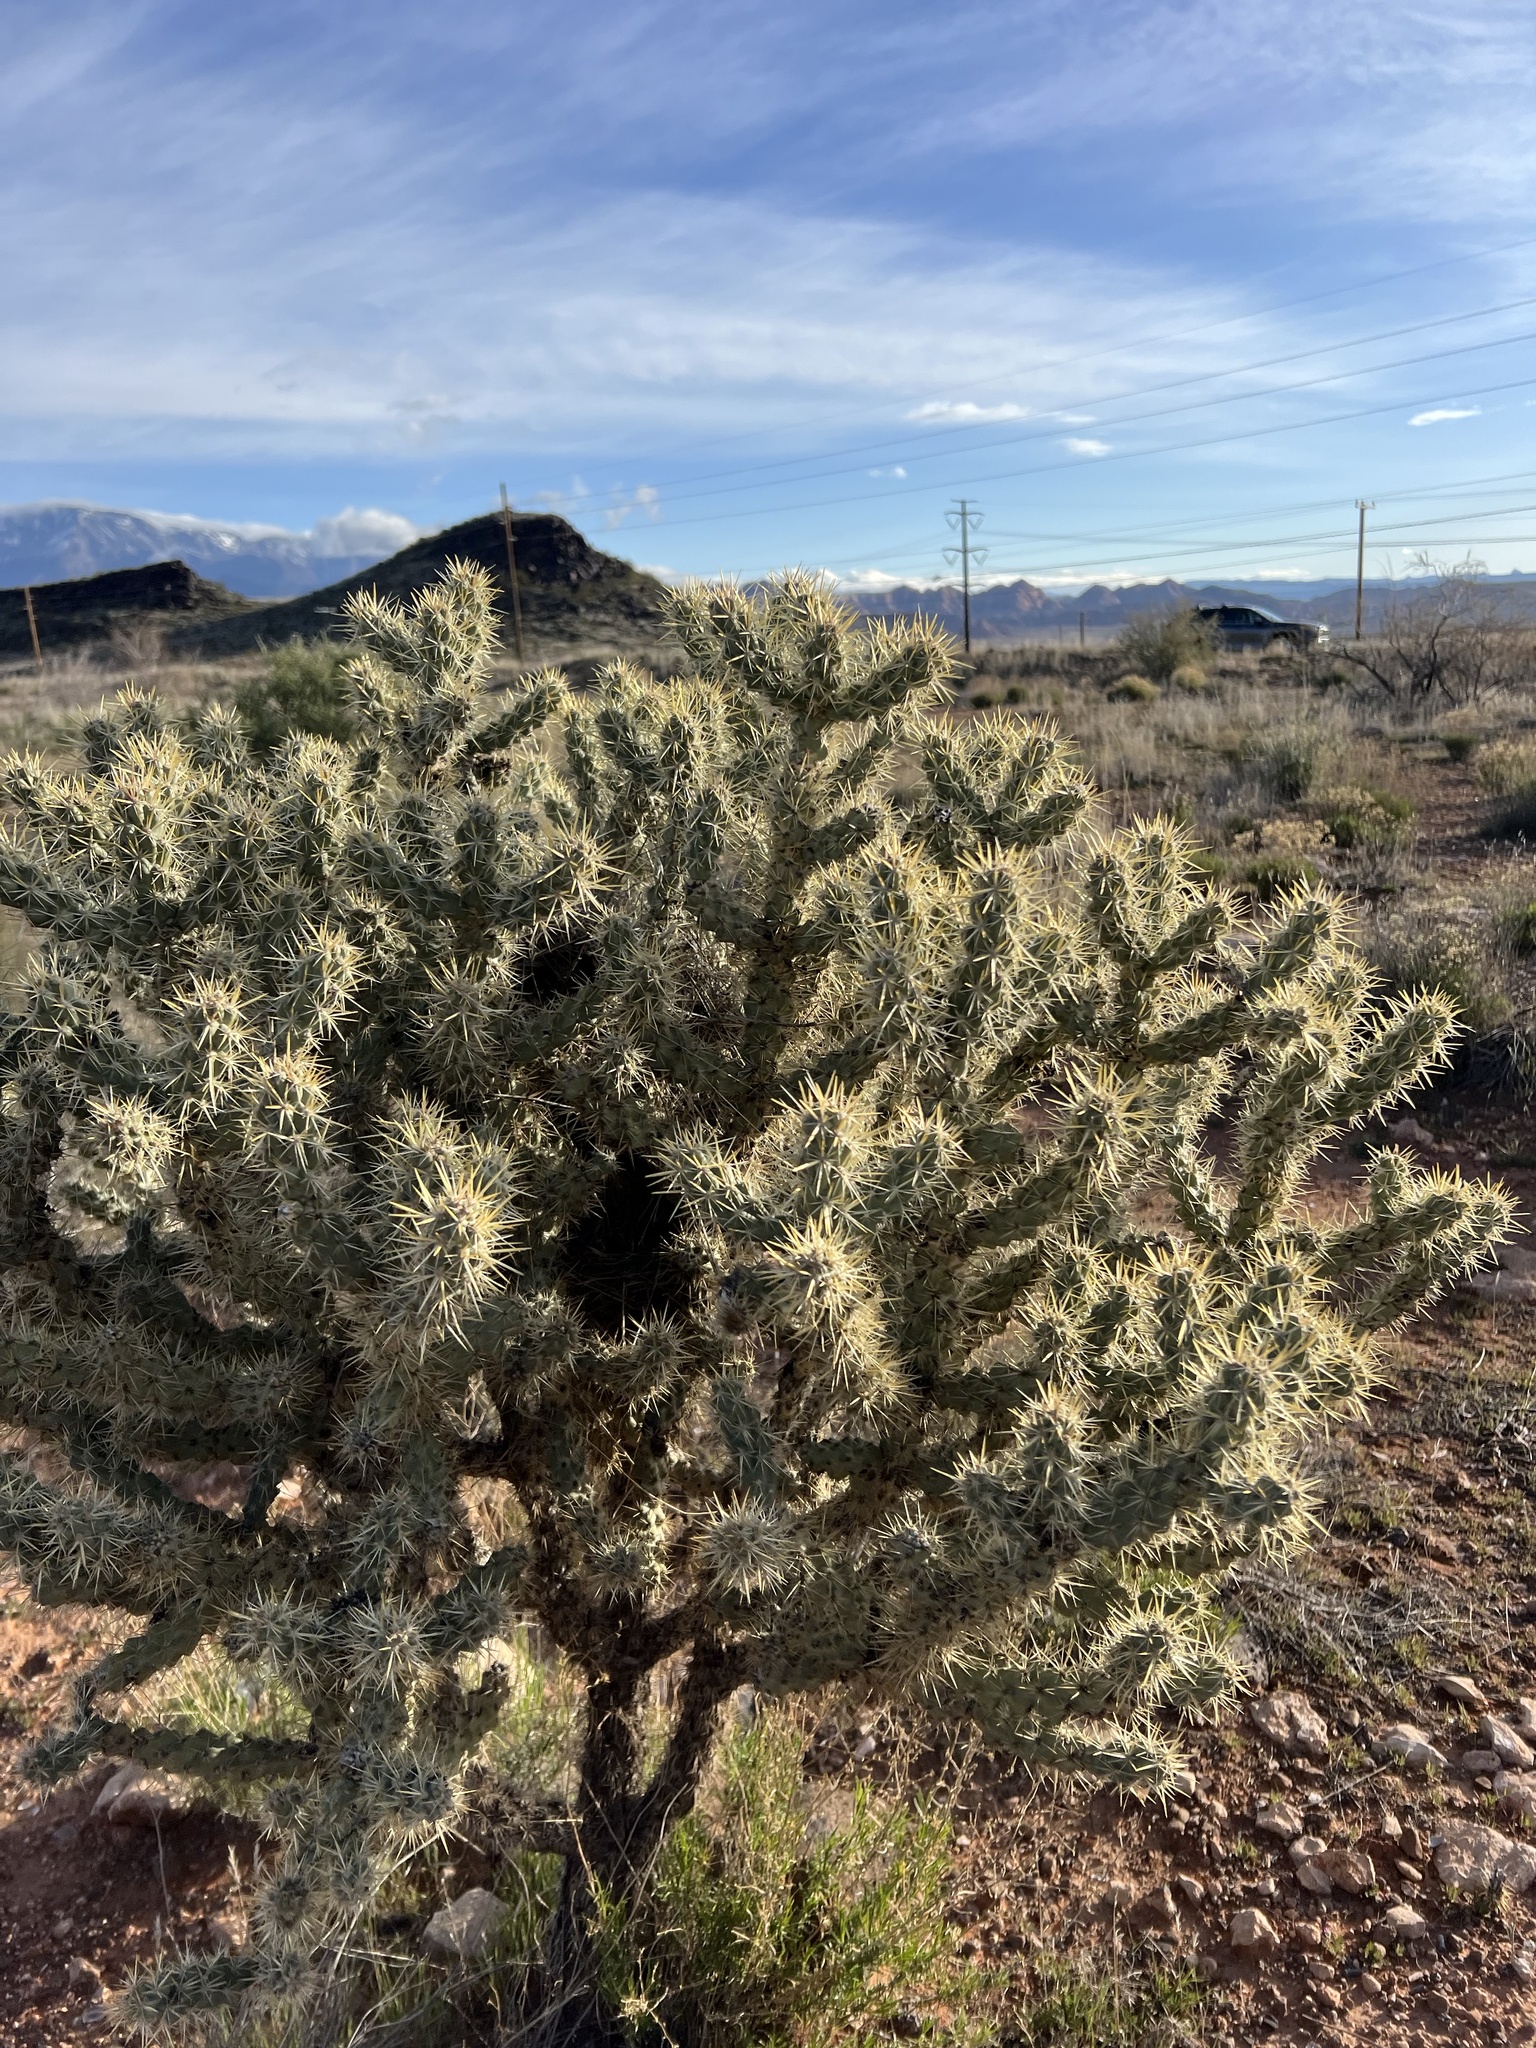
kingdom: Plantae
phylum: Tracheophyta
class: Magnoliopsida
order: Caryophyllales
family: Cactaceae
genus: Cylindropuntia
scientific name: Cylindropuntia echinocarpa
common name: Ground cholla
